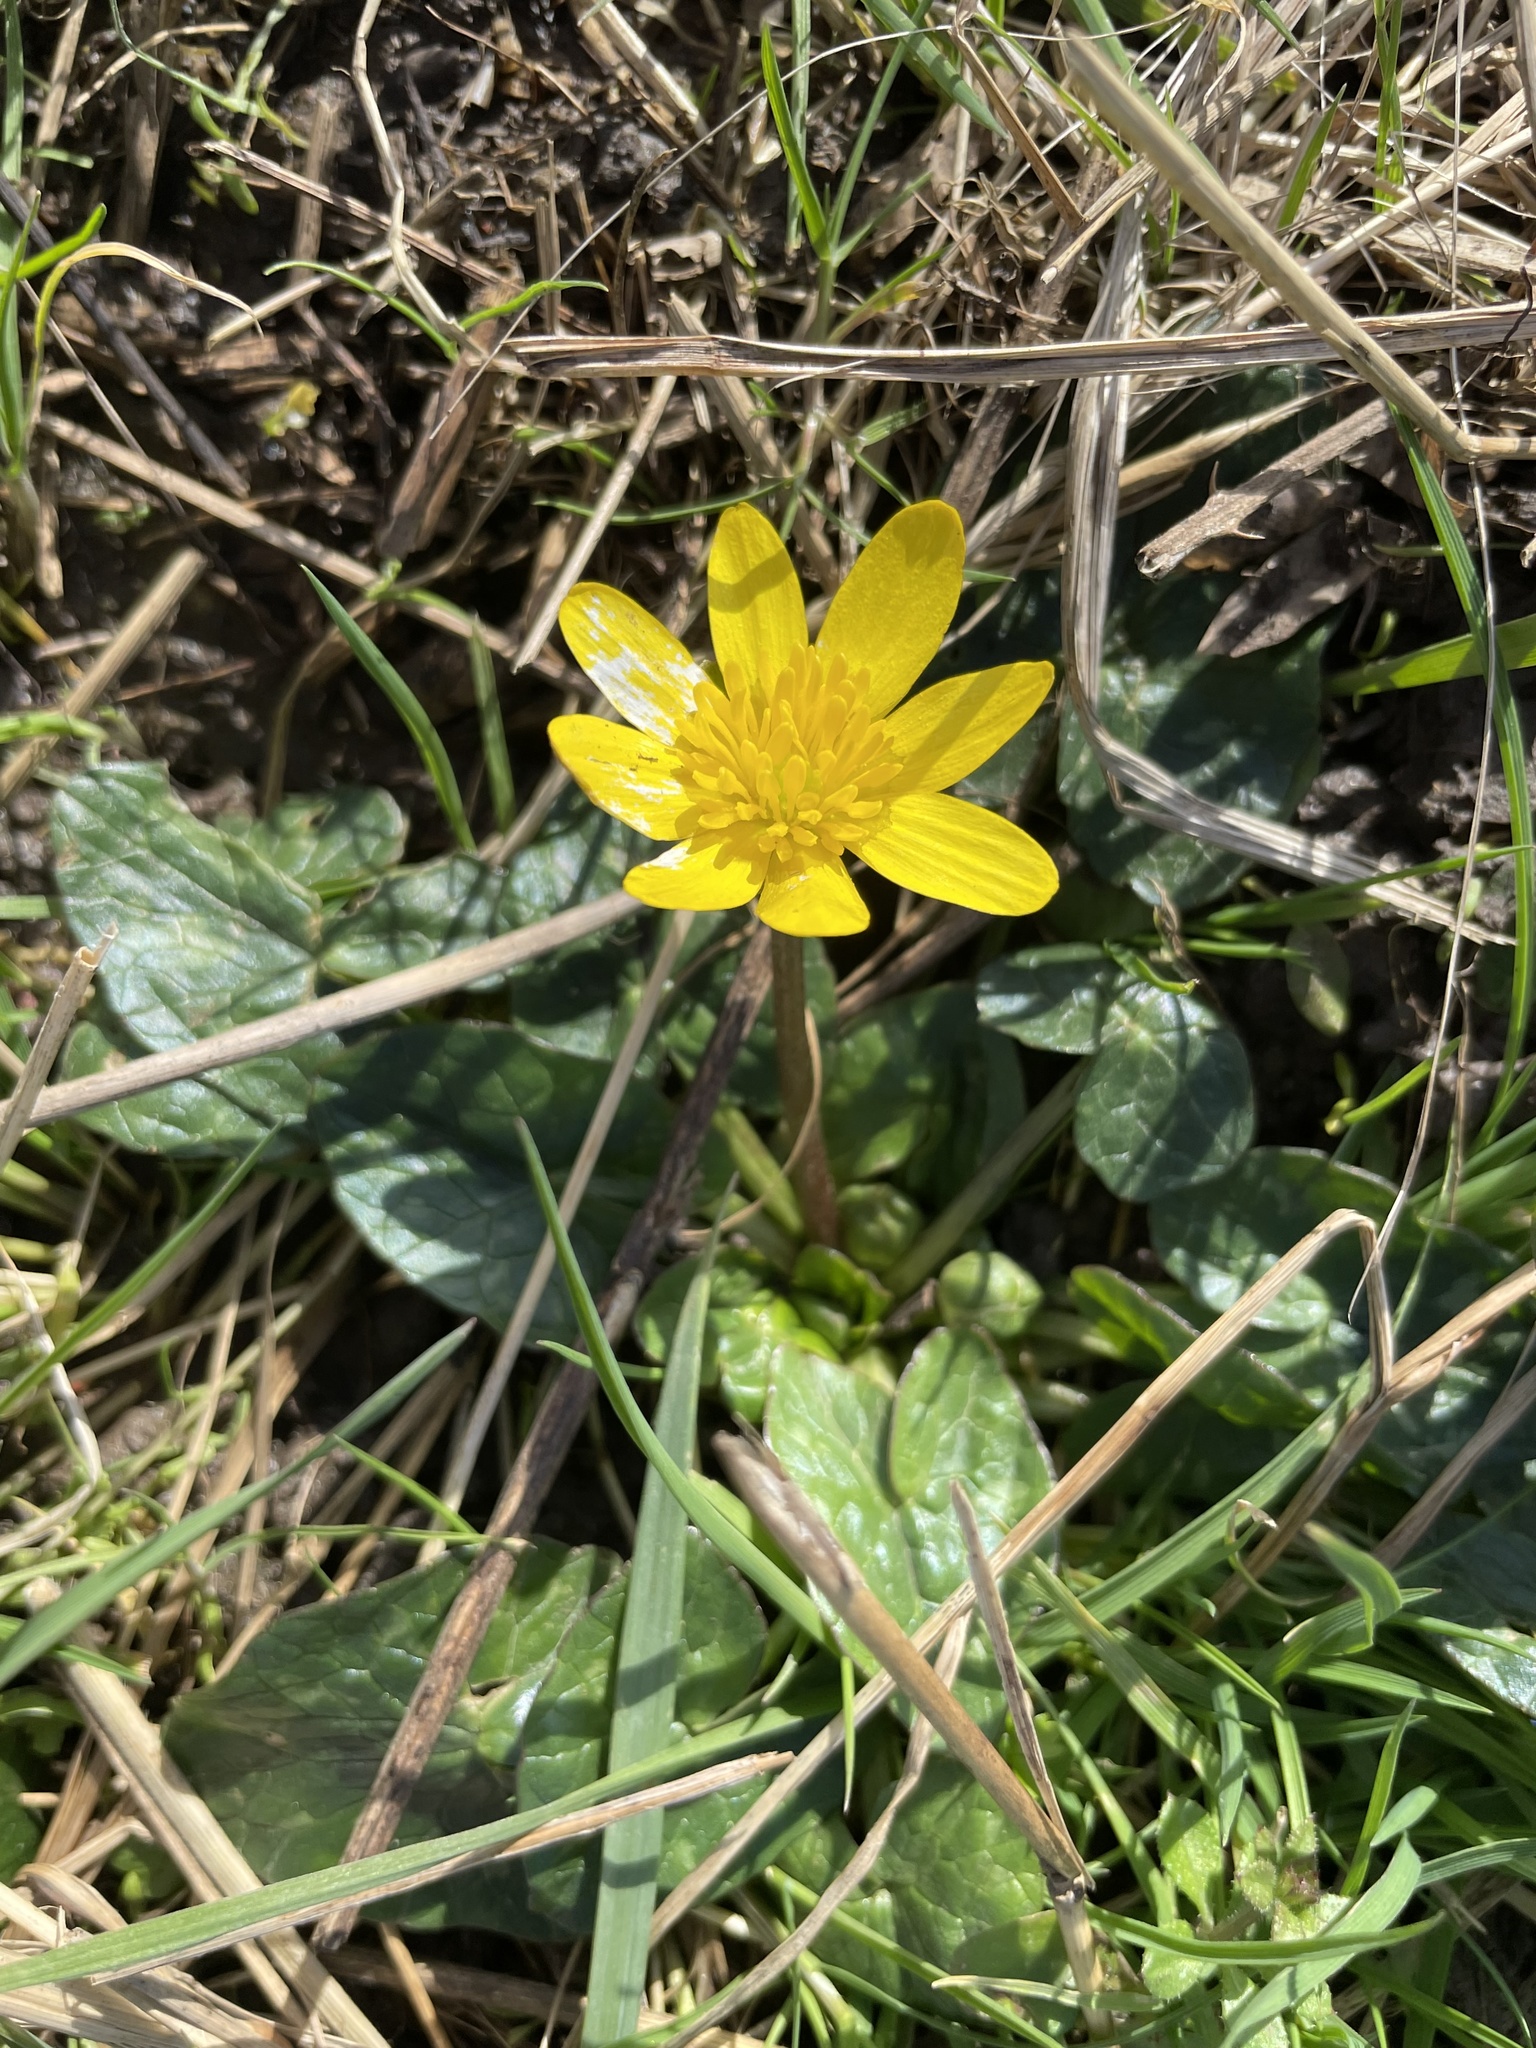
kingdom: Plantae
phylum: Tracheophyta
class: Magnoliopsida
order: Ranunculales
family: Ranunculaceae
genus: Ficaria
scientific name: Ficaria verna
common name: Lesser celandine
